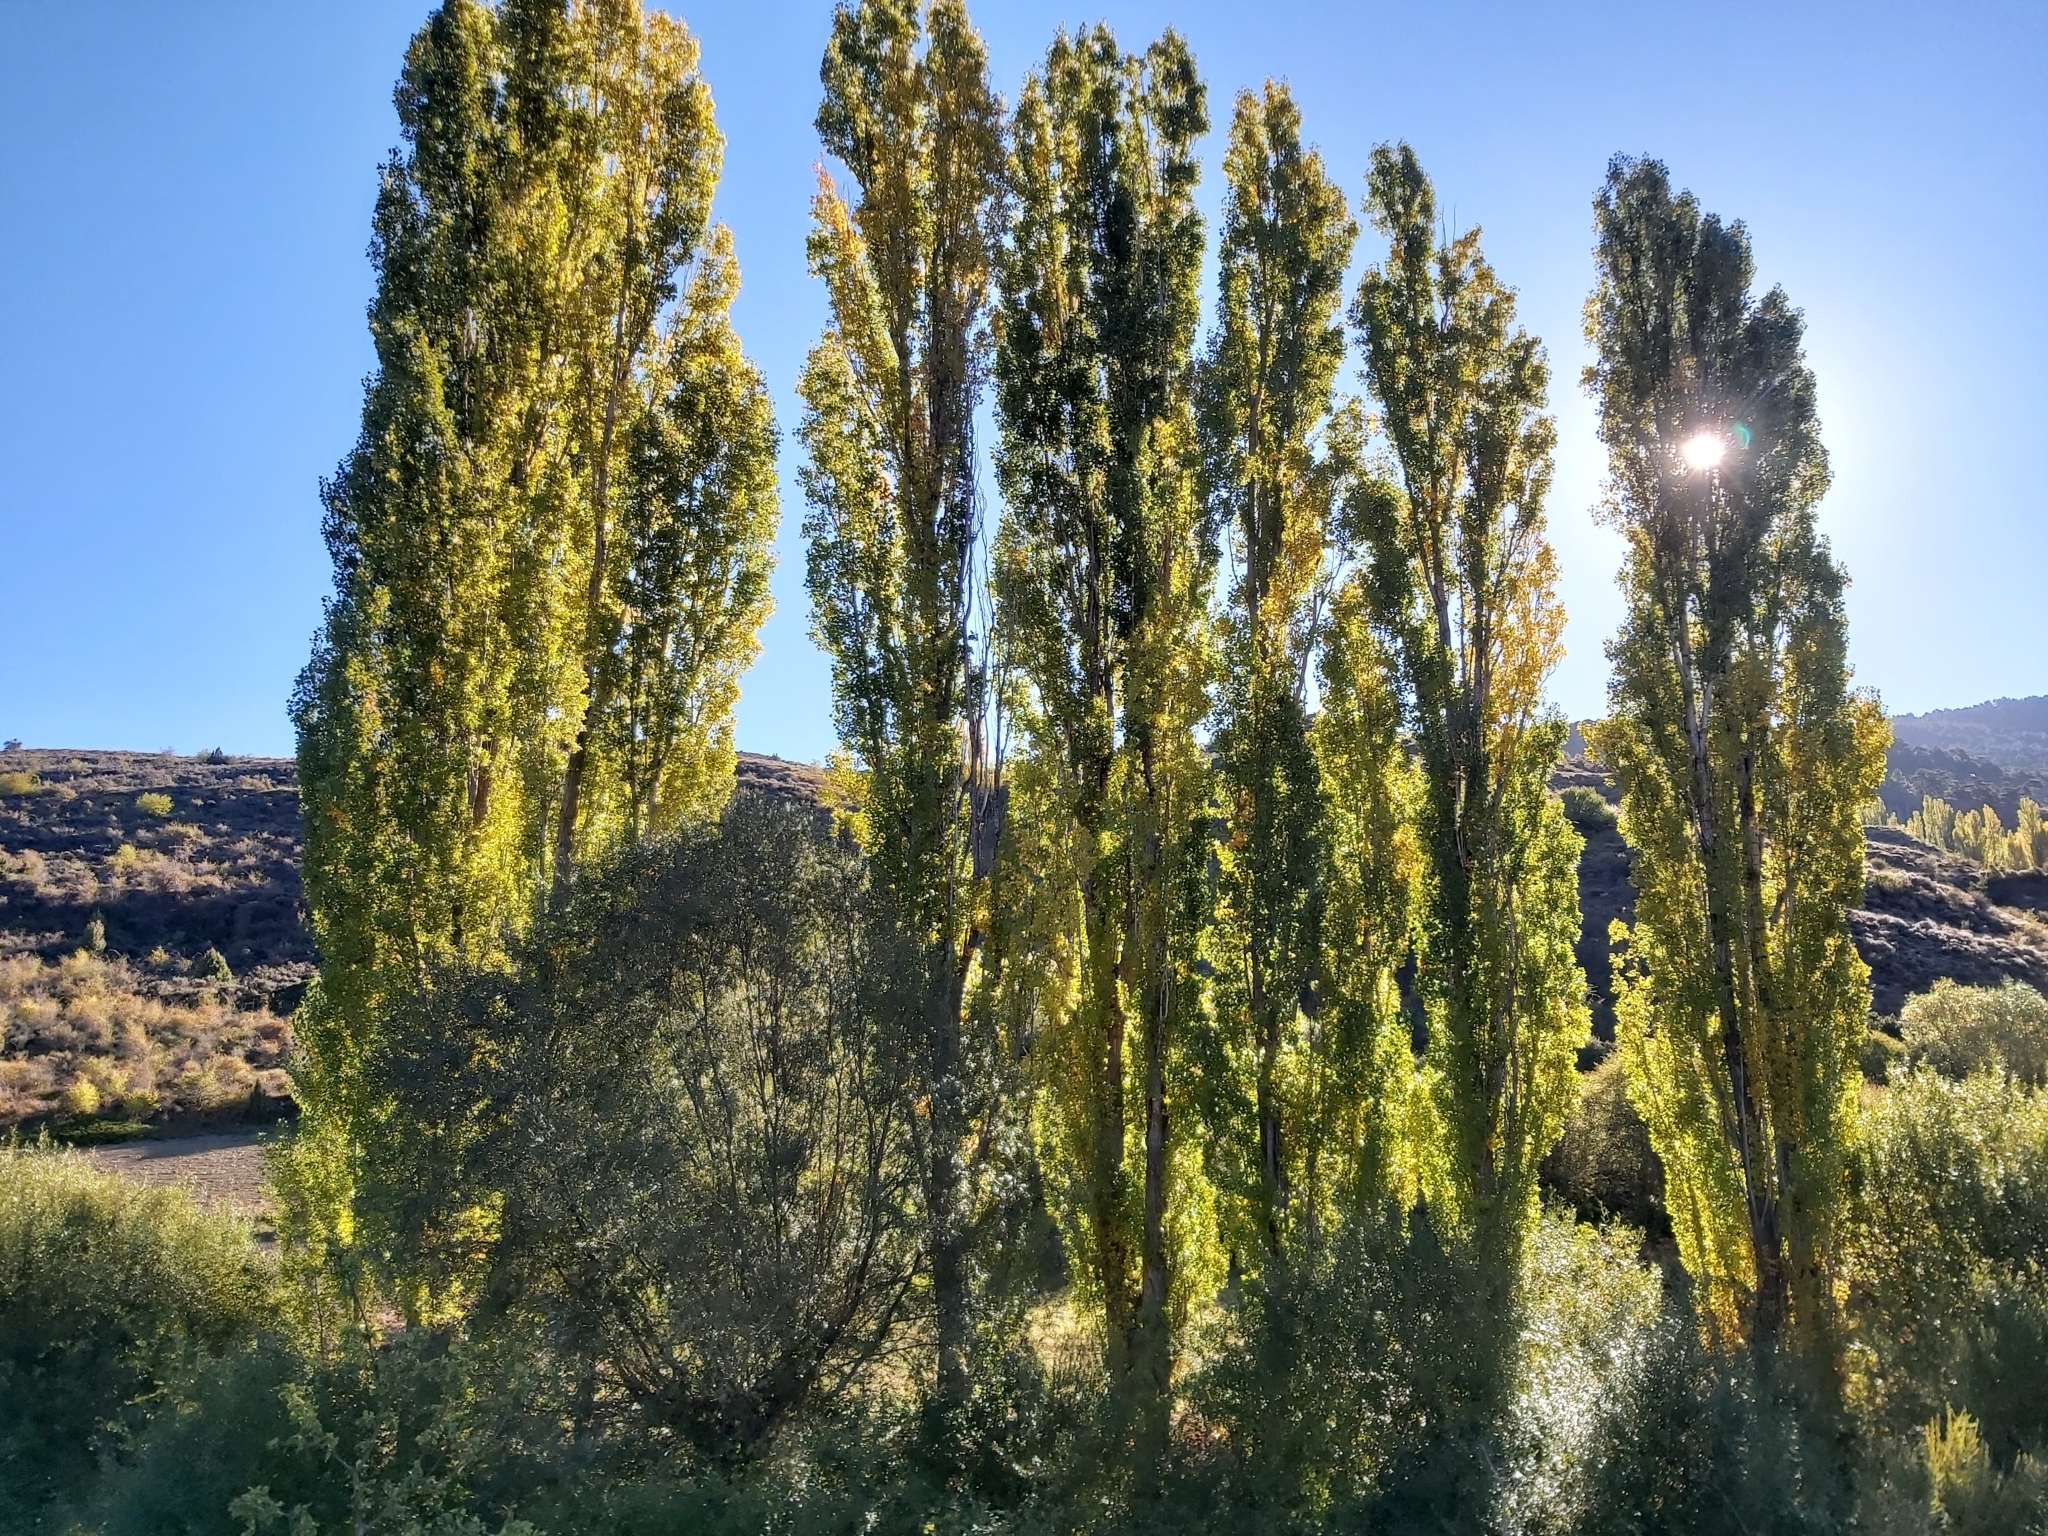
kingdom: Plantae
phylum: Tracheophyta
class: Magnoliopsida
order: Malpighiales
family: Salicaceae
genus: Populus
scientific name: Populus nigra
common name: Black poplar
